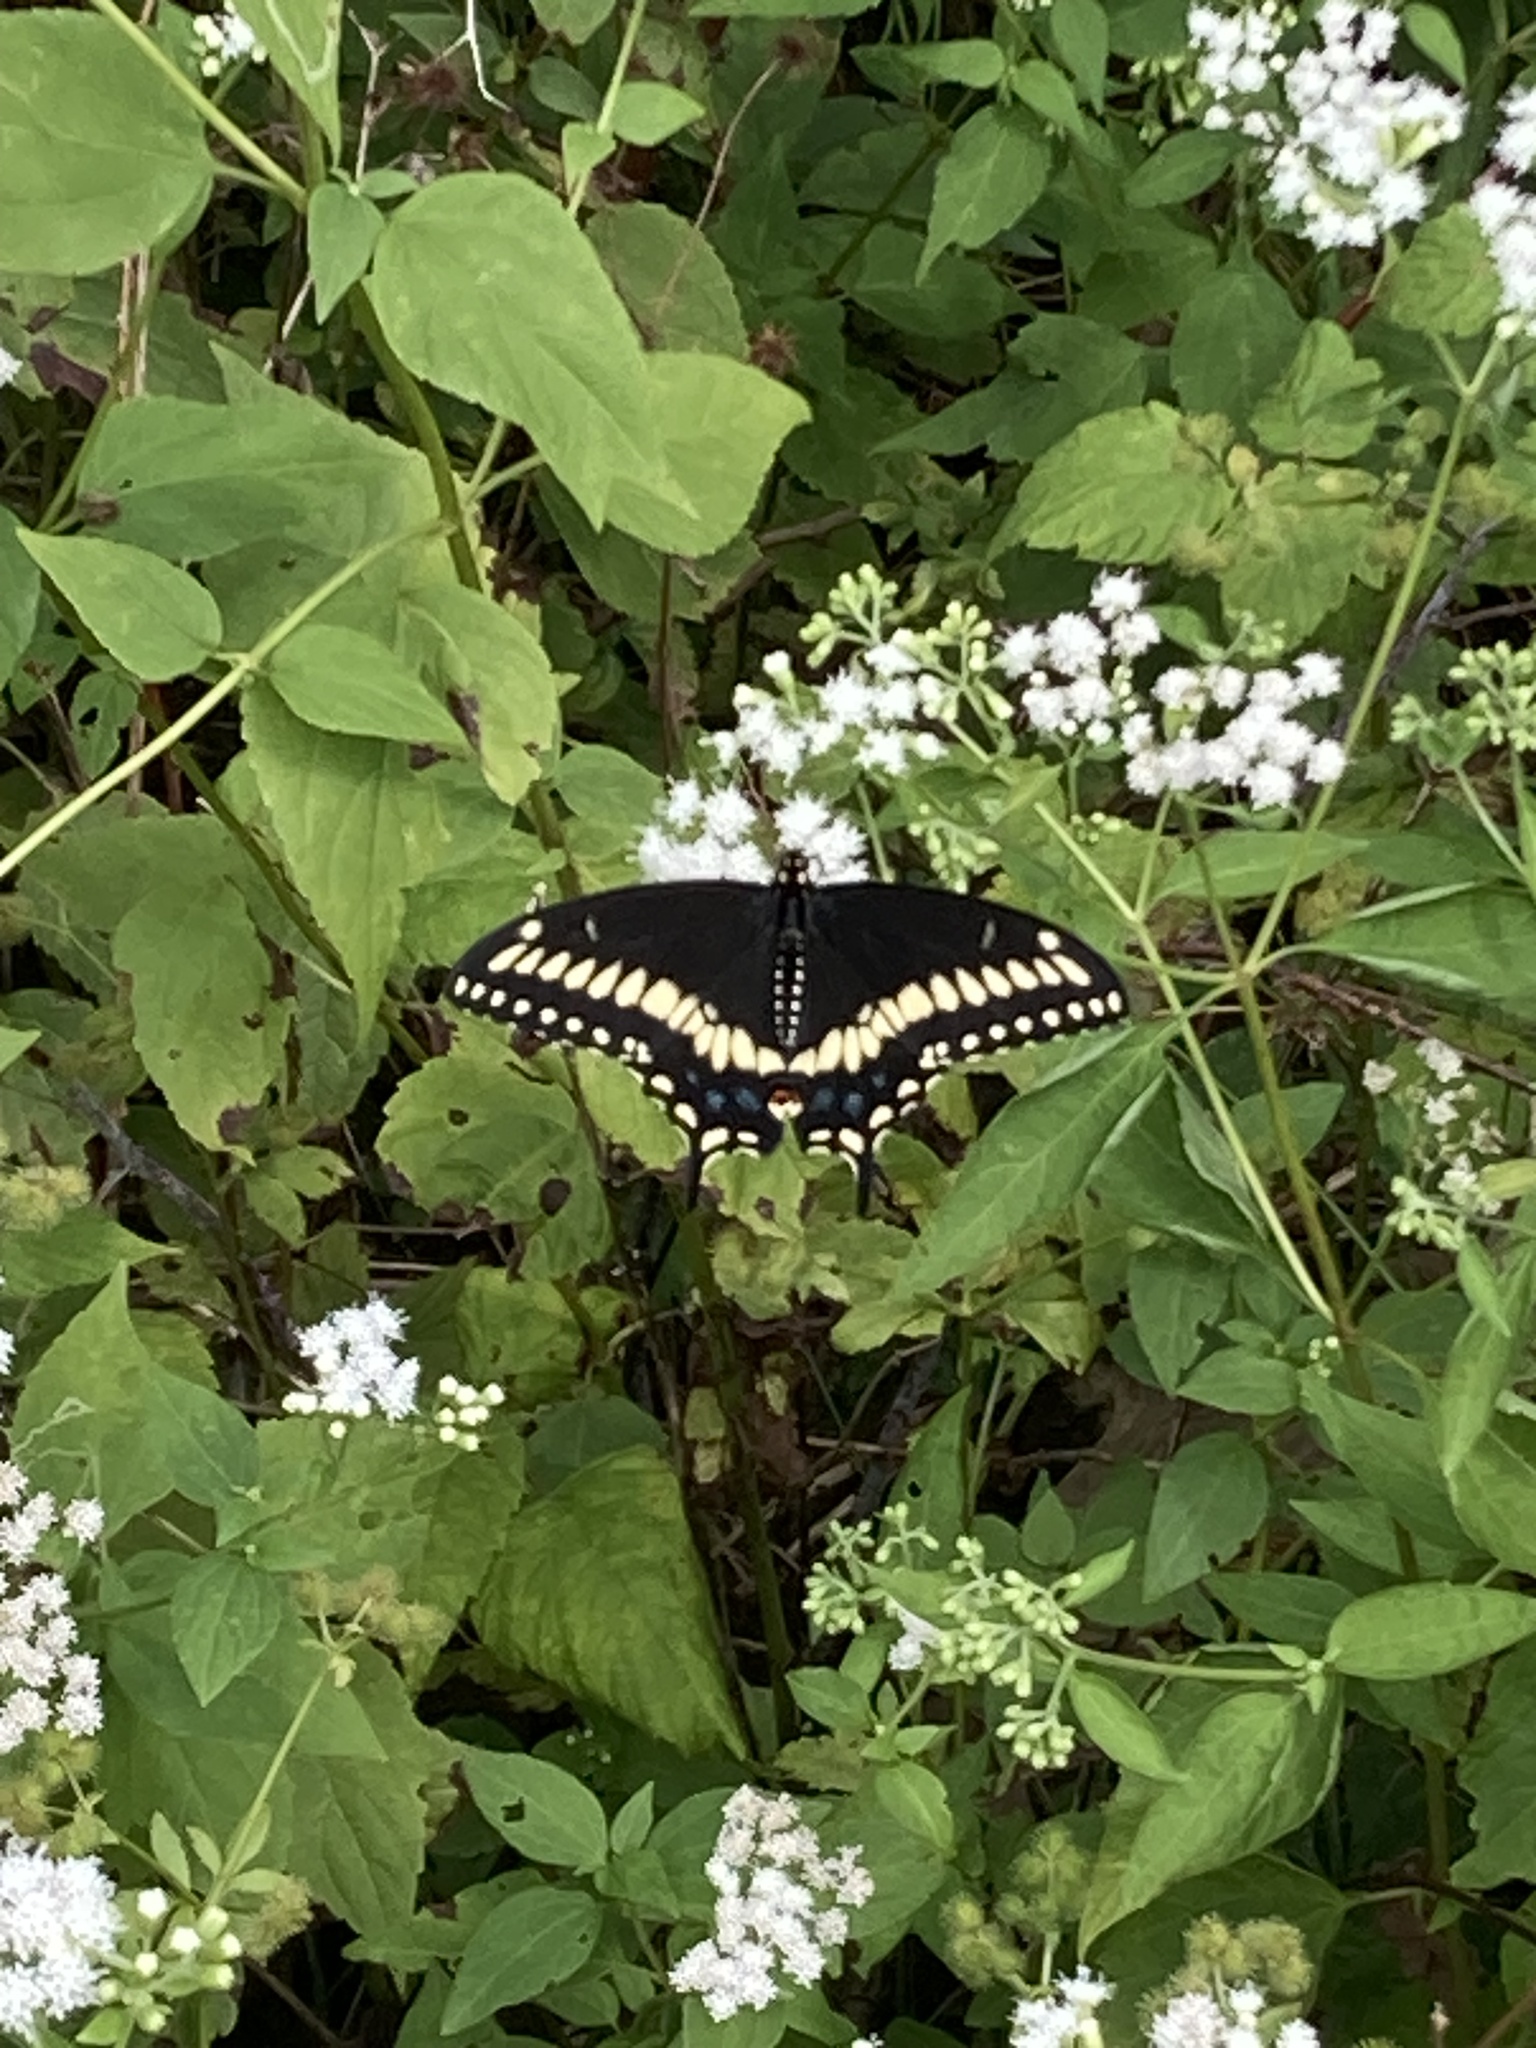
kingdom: Animalia
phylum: Arthropoda
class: Insecta
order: Lepidoptera
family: Papilionidae
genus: Papilio
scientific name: Papilio polyxenes
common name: Black swallowtail
